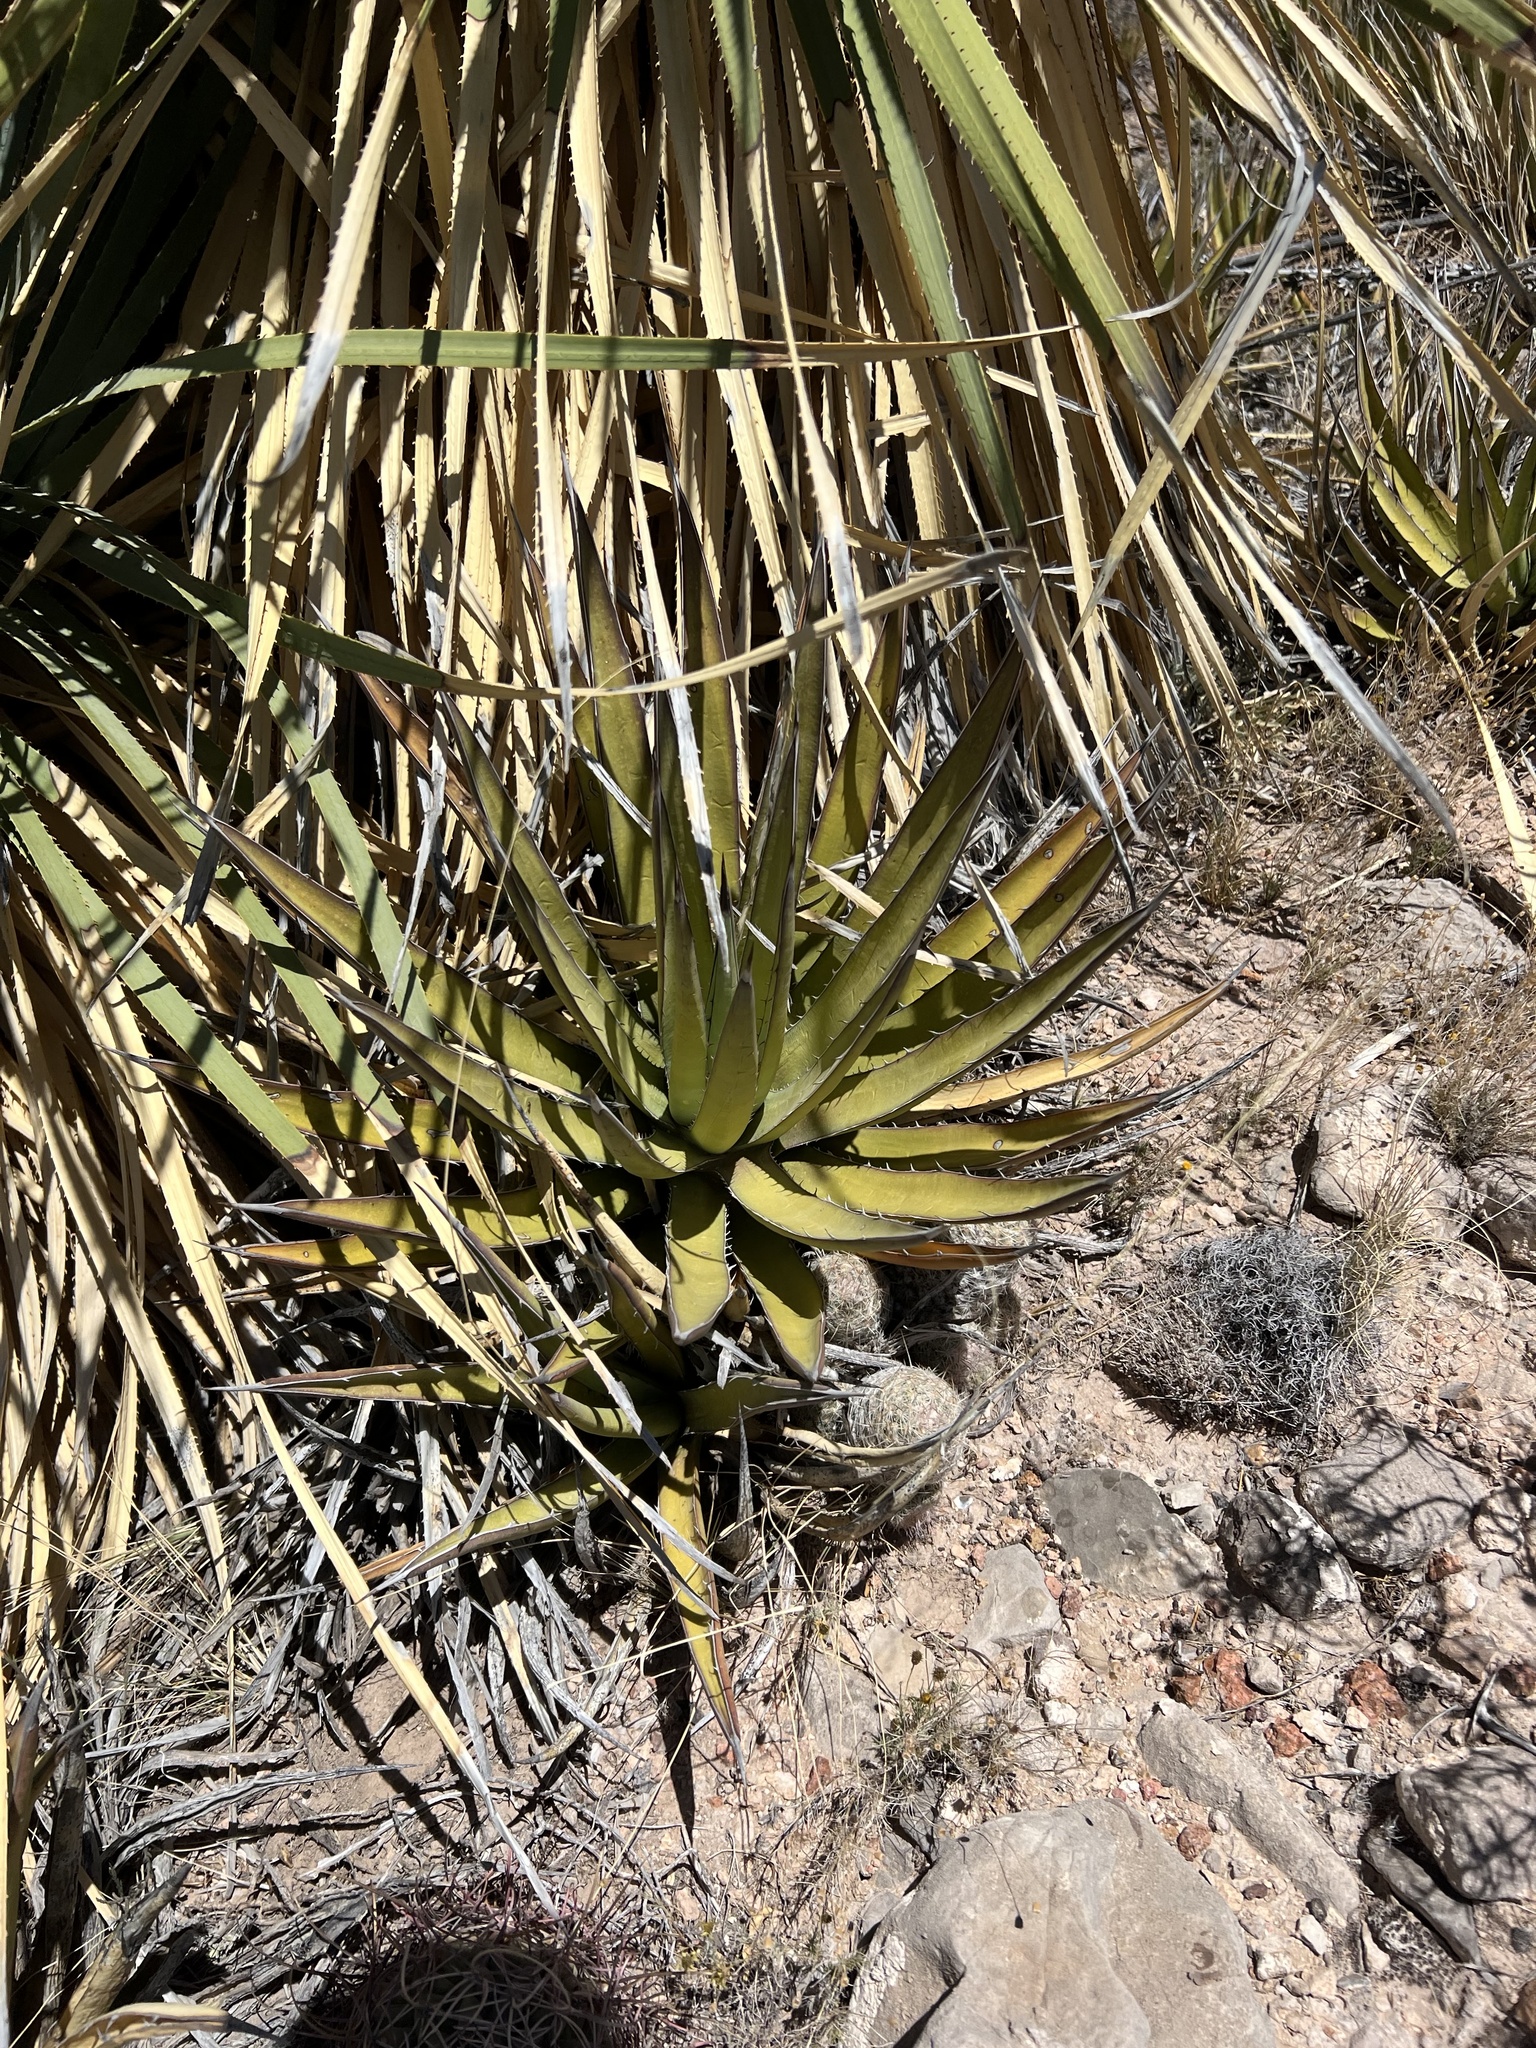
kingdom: Plantae
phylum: Tracheophyta
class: Liliopsida
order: Asparagales
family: Asparagaceae
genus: Agave
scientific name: Agave lechuguilla
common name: Lecheguilla agave
